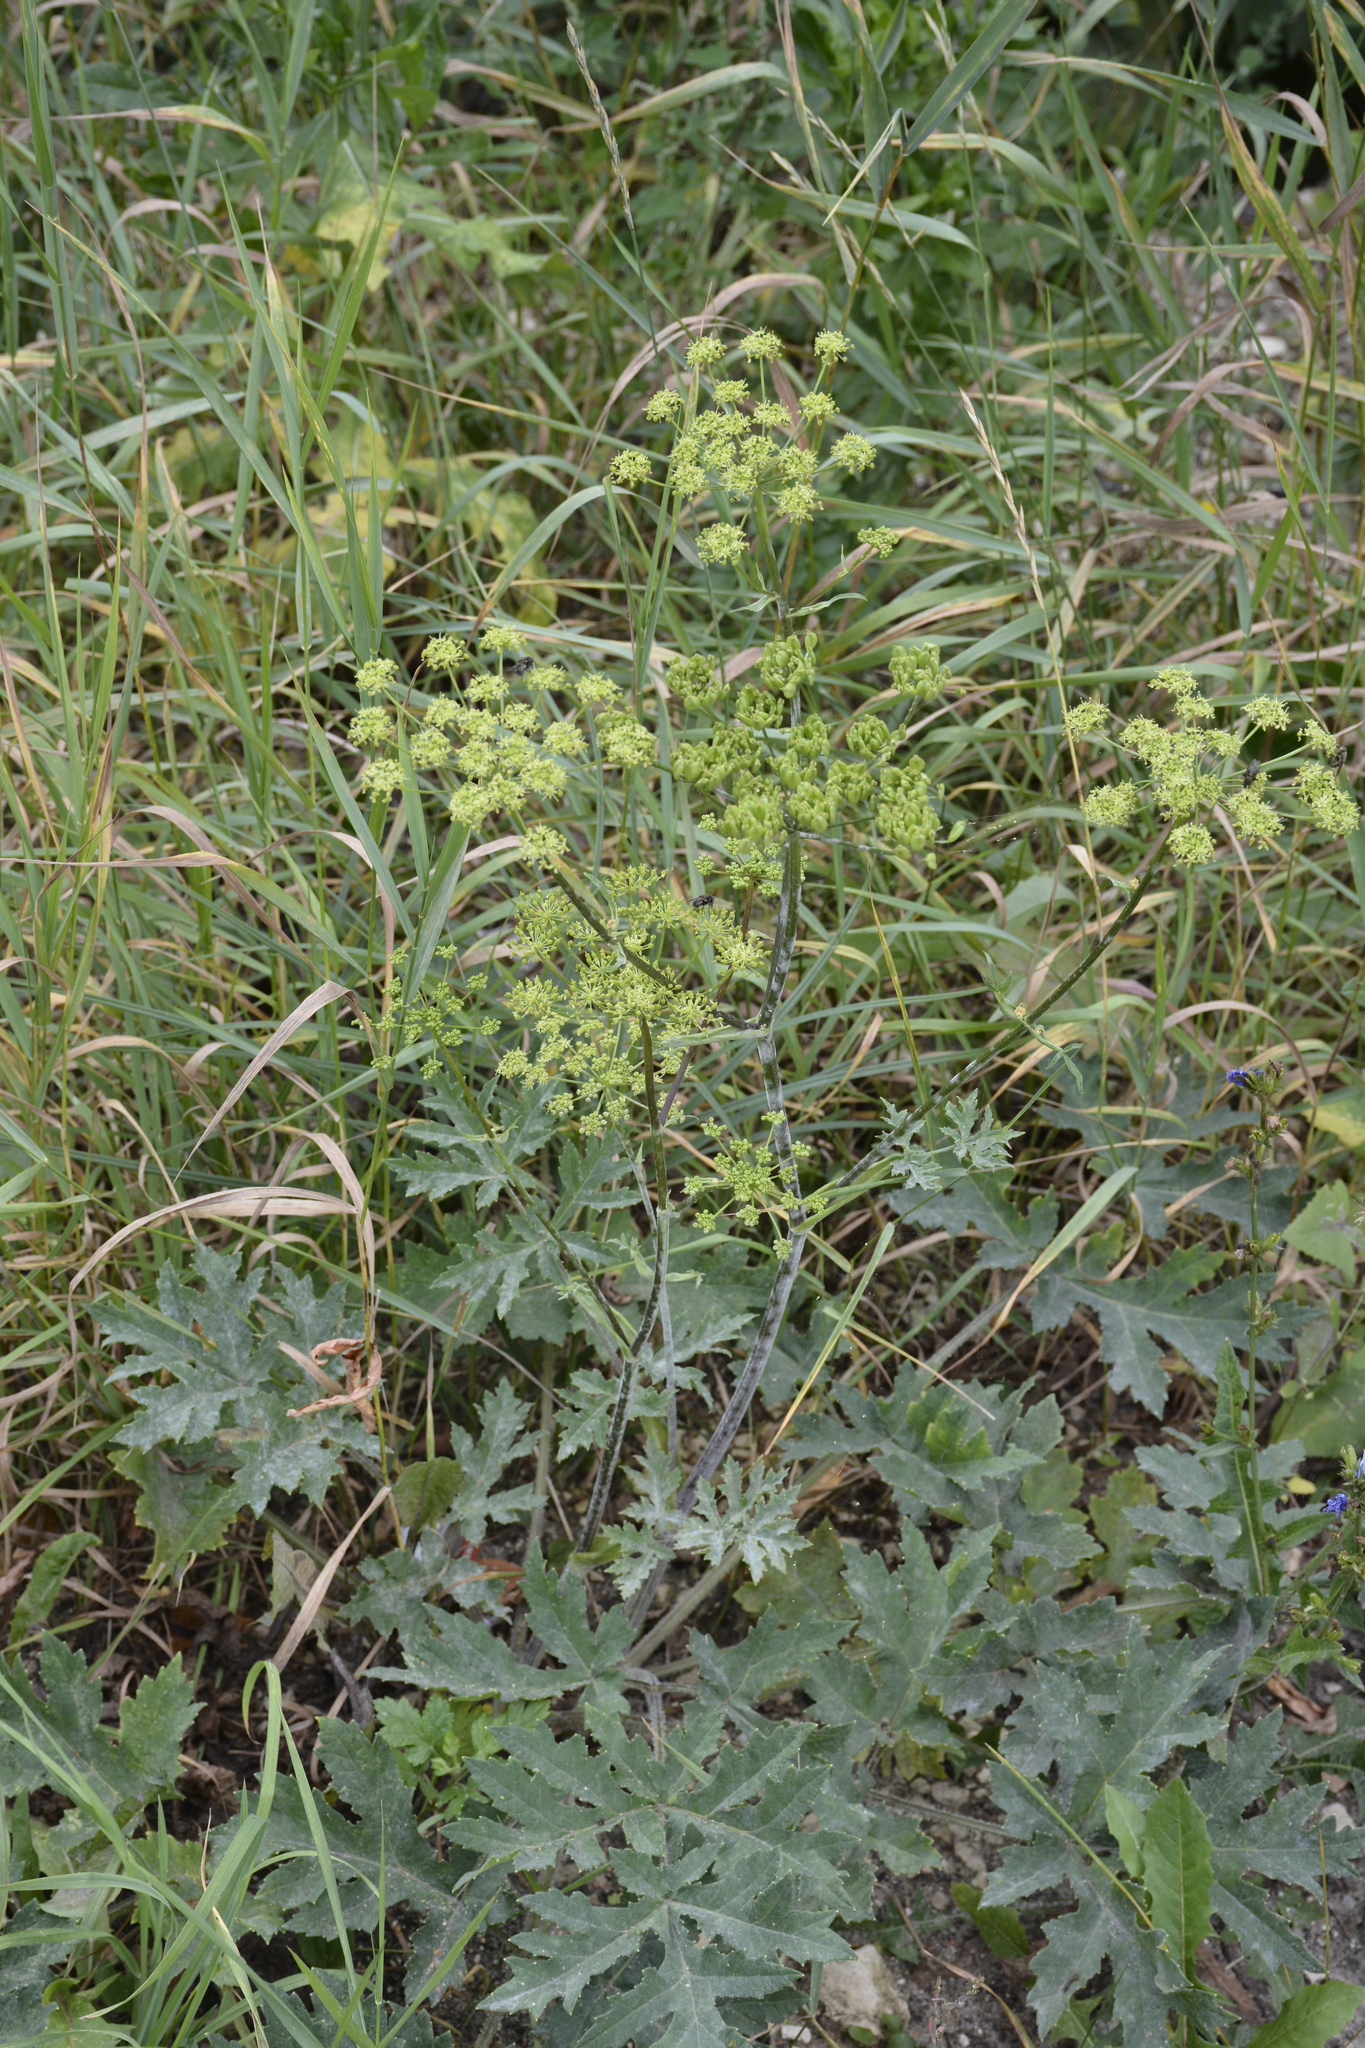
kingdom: Plantae
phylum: Tracheophyta
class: Magnoliopsida
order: Apiales
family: Apiaceae
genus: Heracleum
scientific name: Heracleum sphondylium
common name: Hogweed
